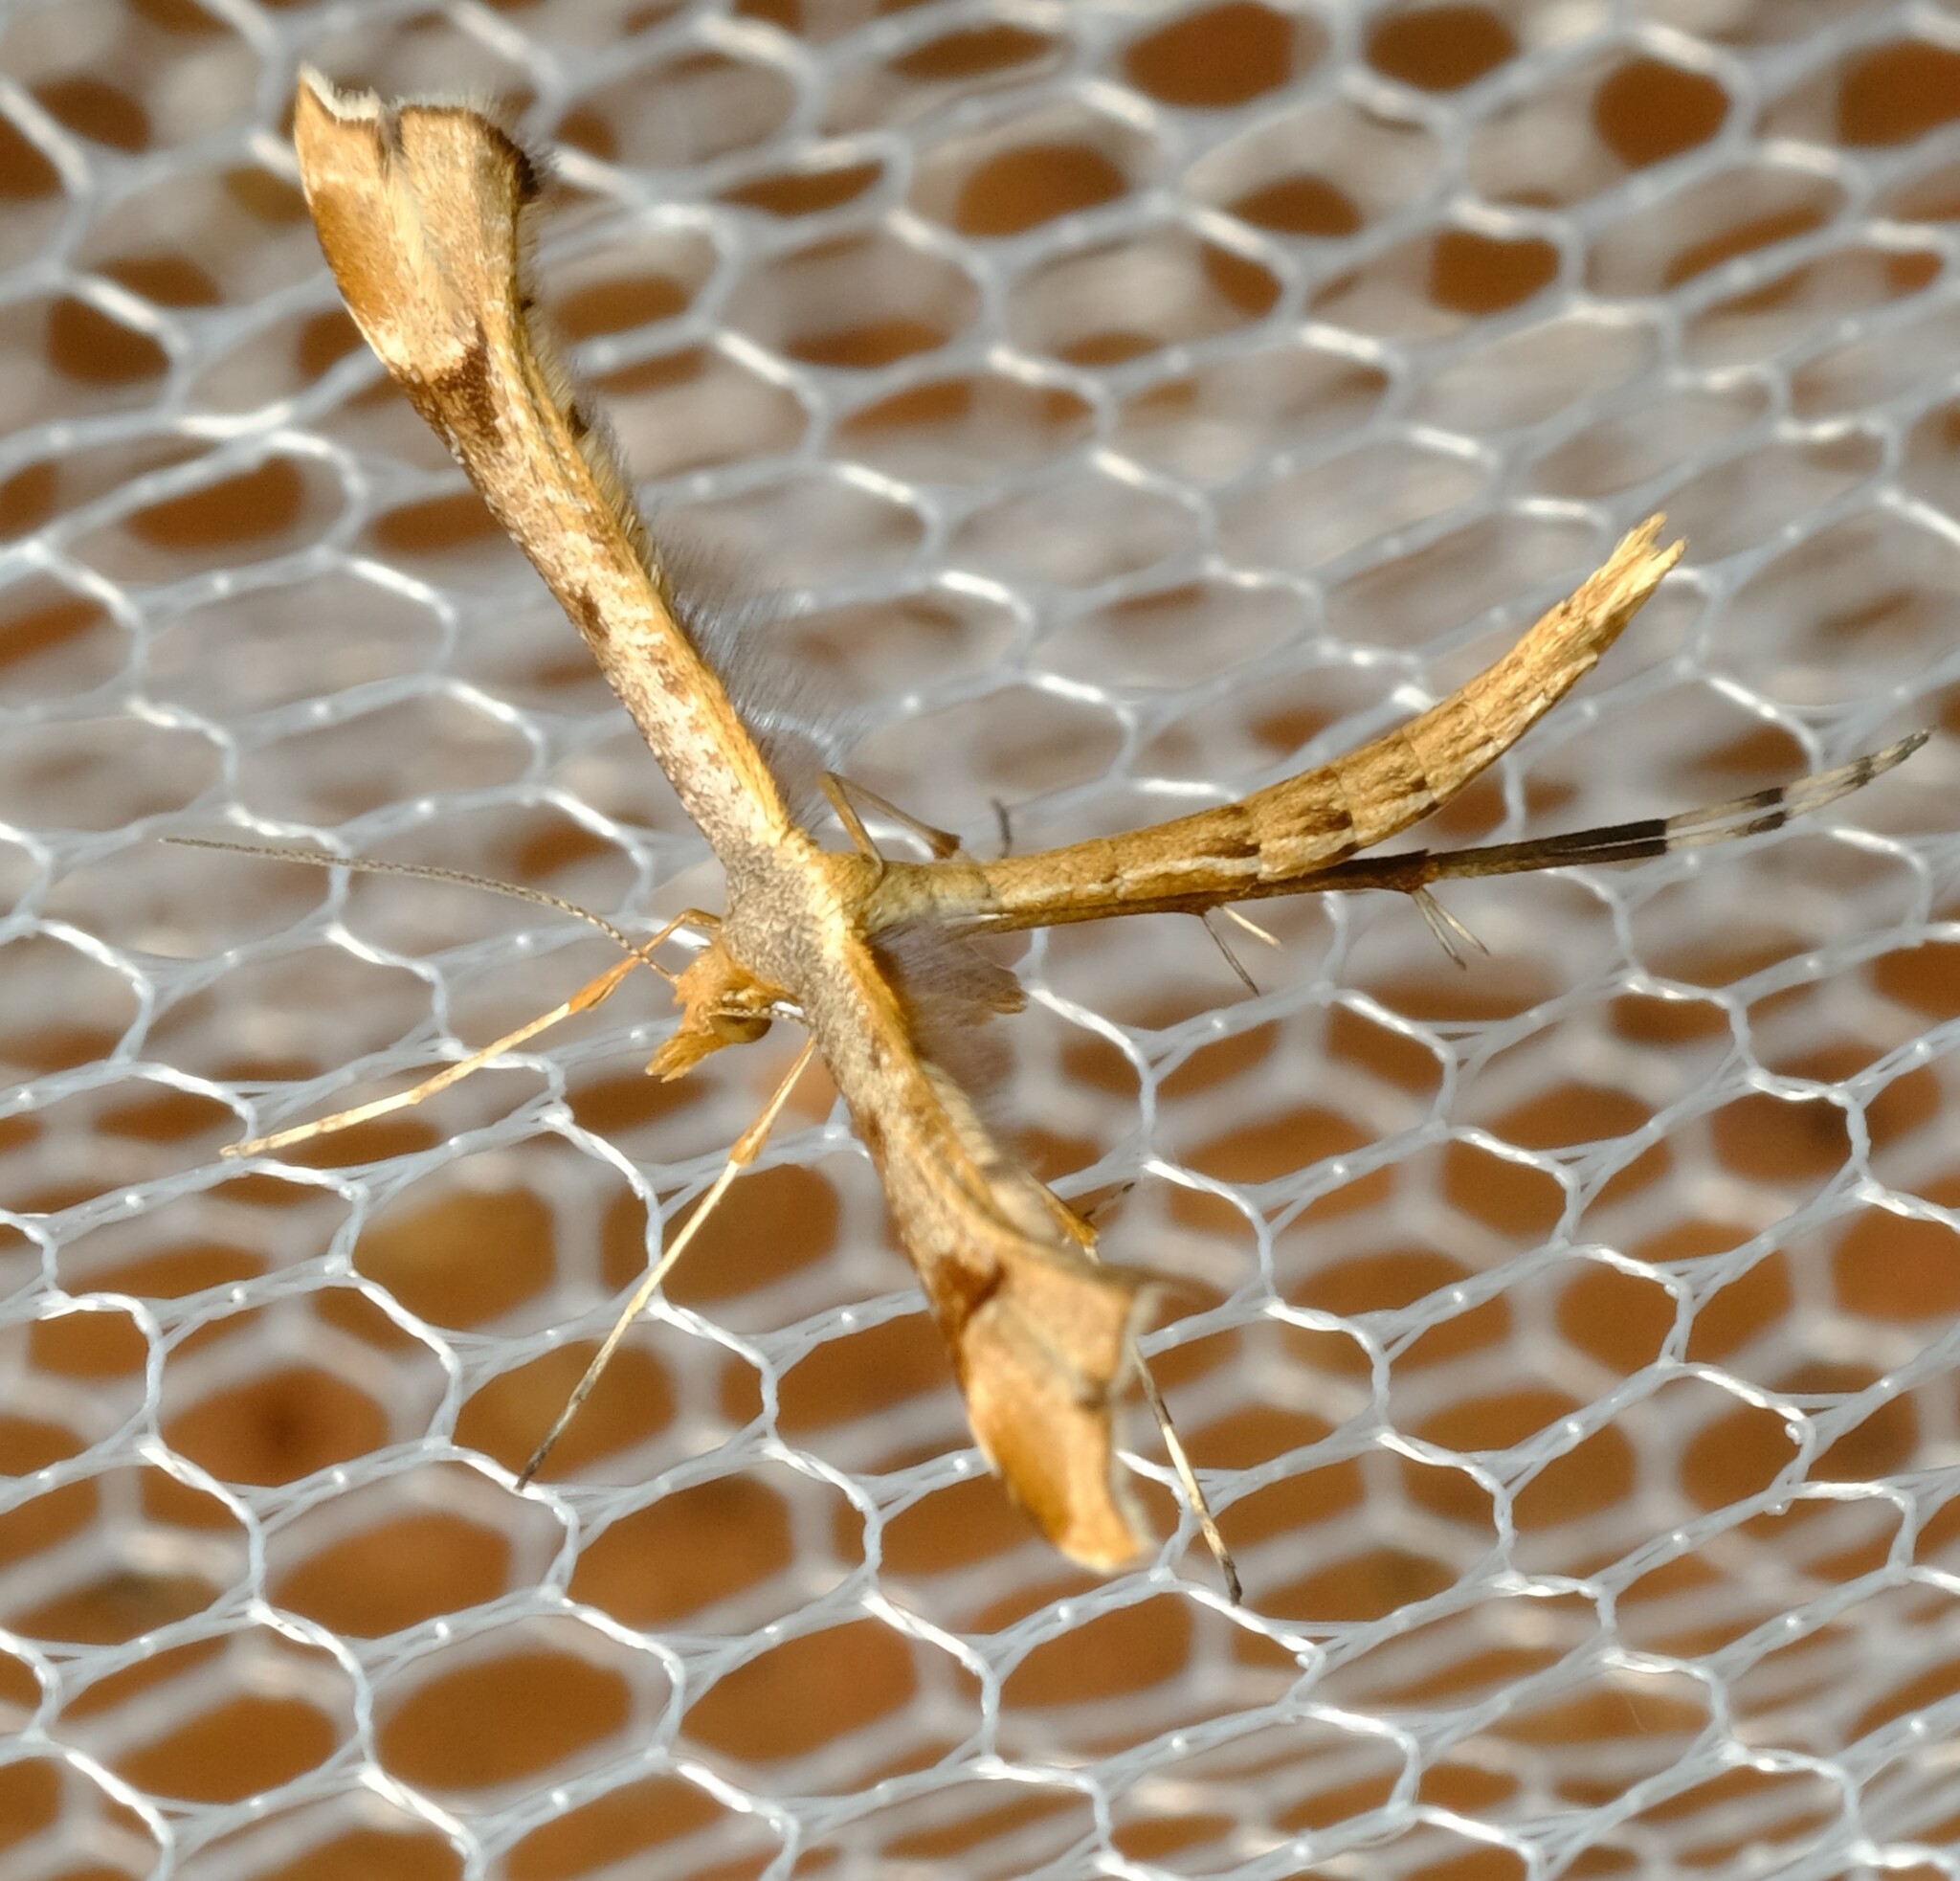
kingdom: Animalia
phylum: Arthropoda
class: Insecta
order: Lepidoptera
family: Pterophoridae
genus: Sinpunctiptilia
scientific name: Sinpunctiptilia emissalis
